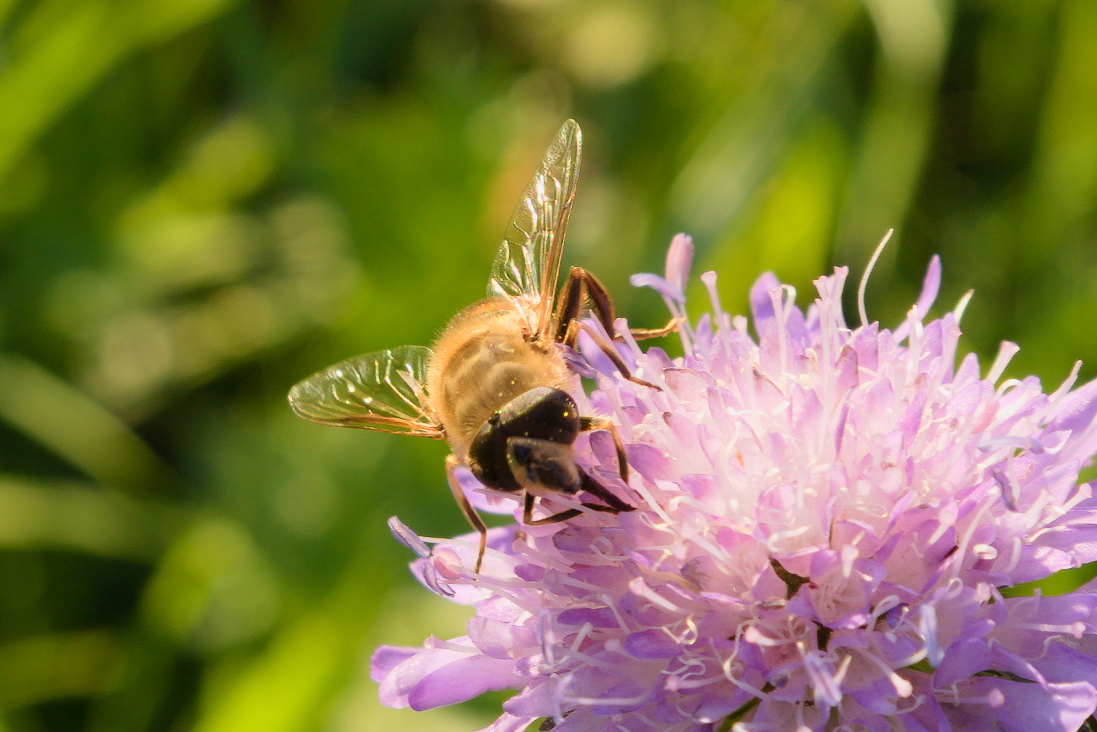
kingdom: Animalia
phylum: Arthropoda
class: Insecta
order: Diptera
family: Syrphidae
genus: Eristalis
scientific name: Eristalis tenax
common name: Drone fly
